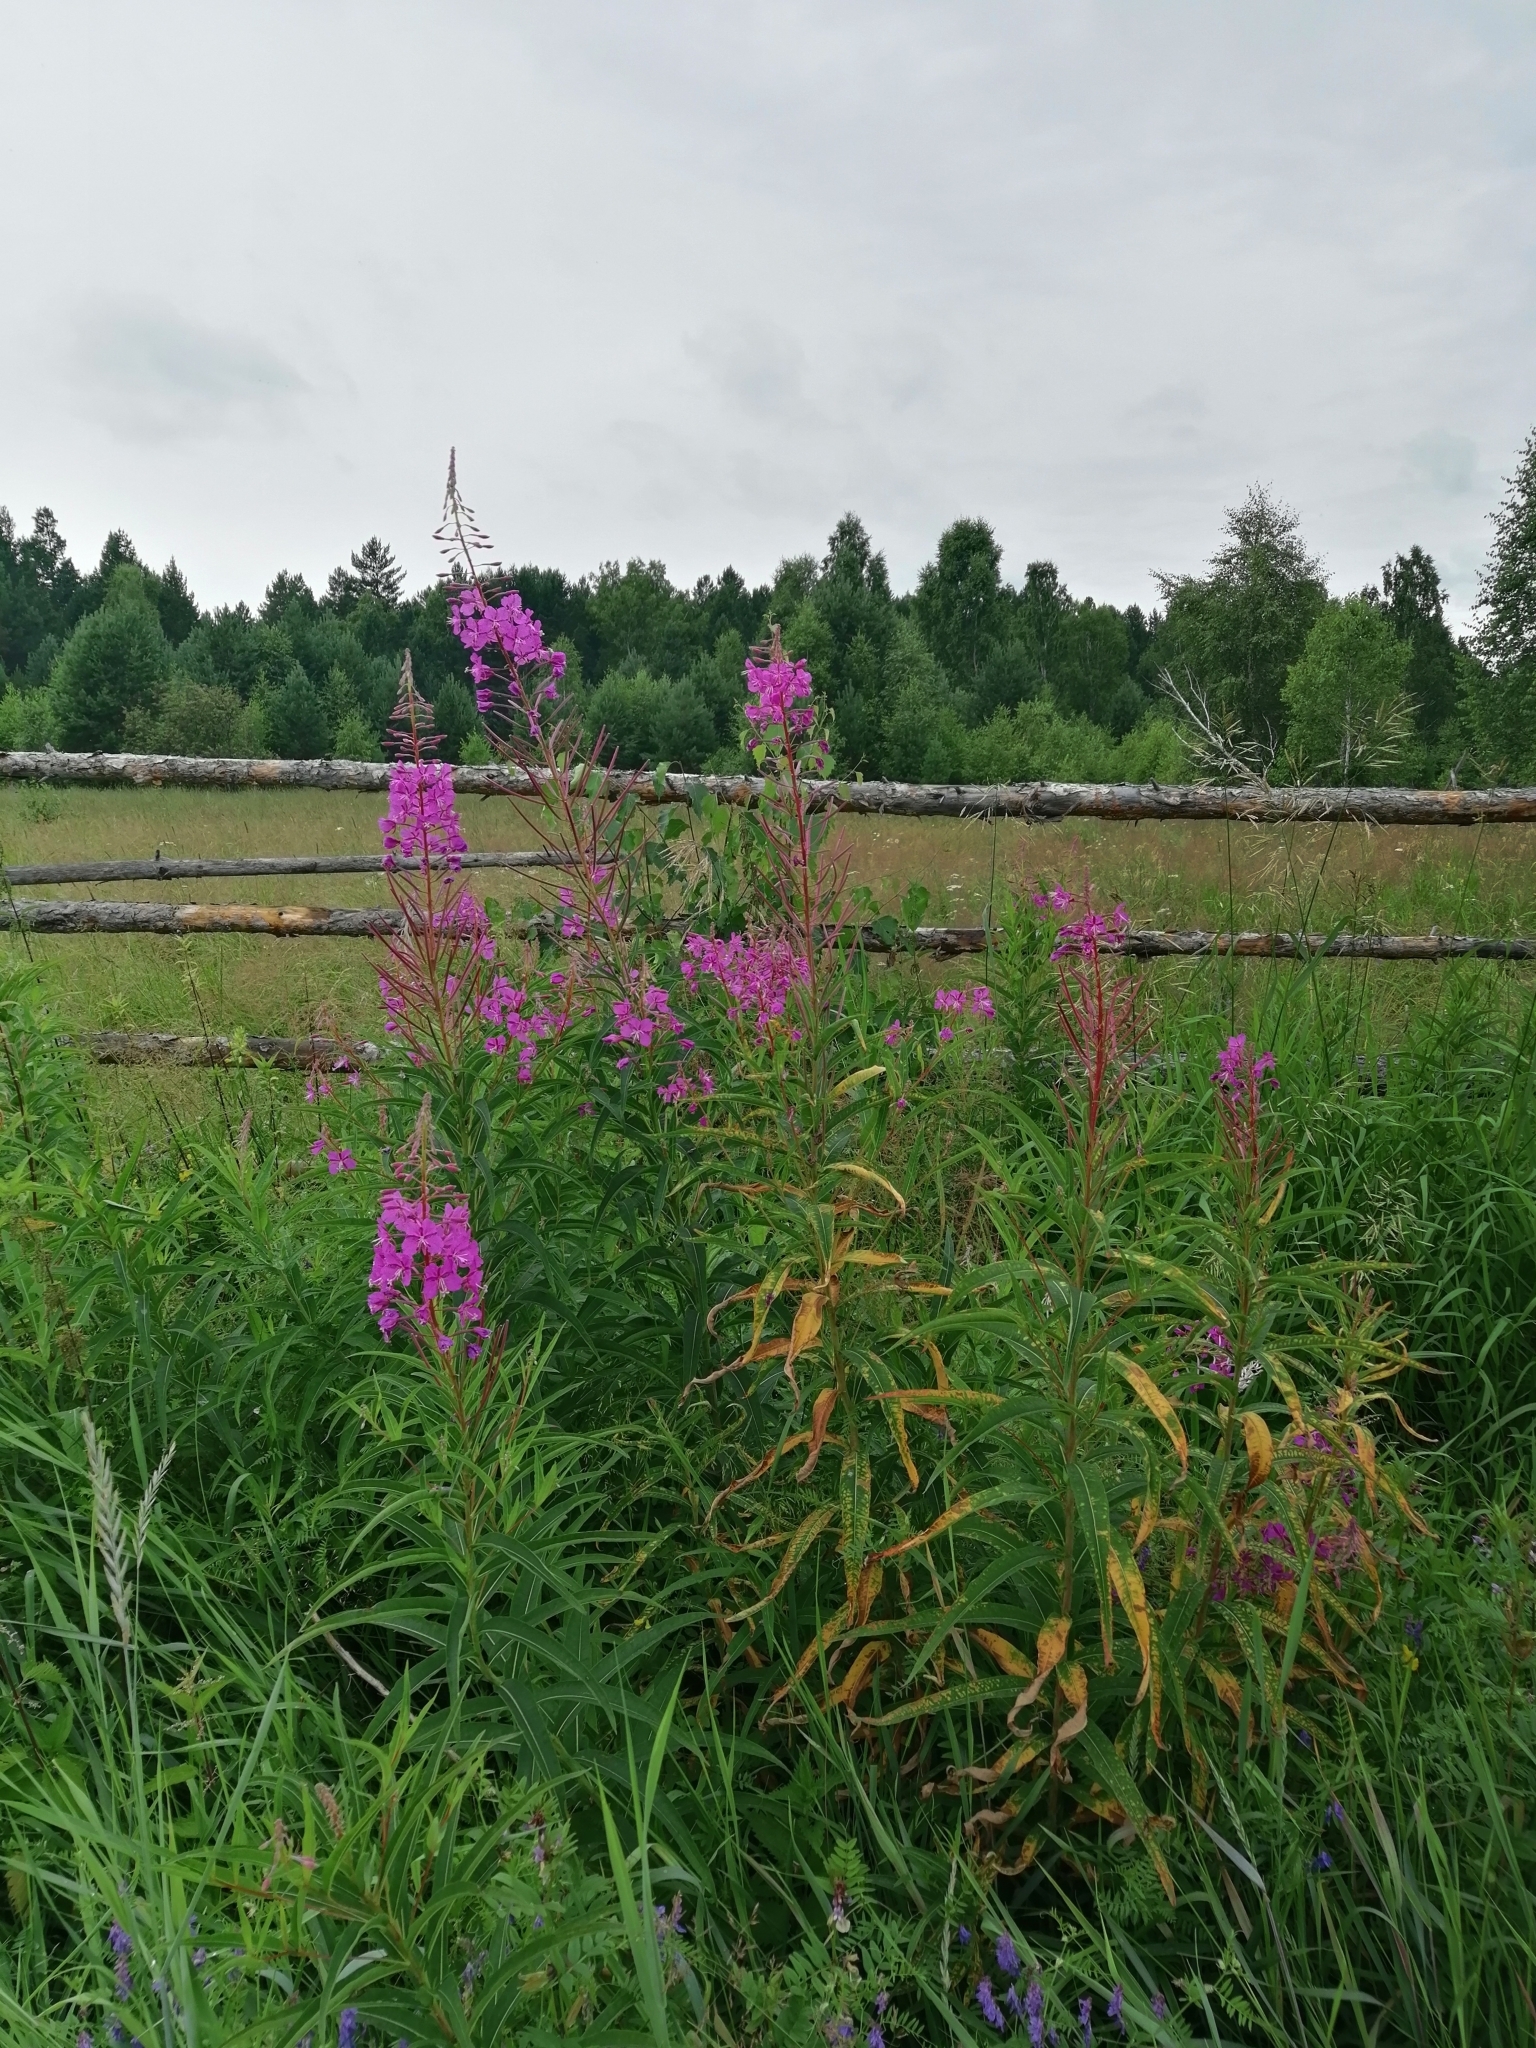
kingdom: Plantae
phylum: Tracheophyta
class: Magnoliopsida
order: Myrtales
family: Onagraceae
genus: Chamaenerion
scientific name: Chamaenerion angustifolium
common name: Fireweed
